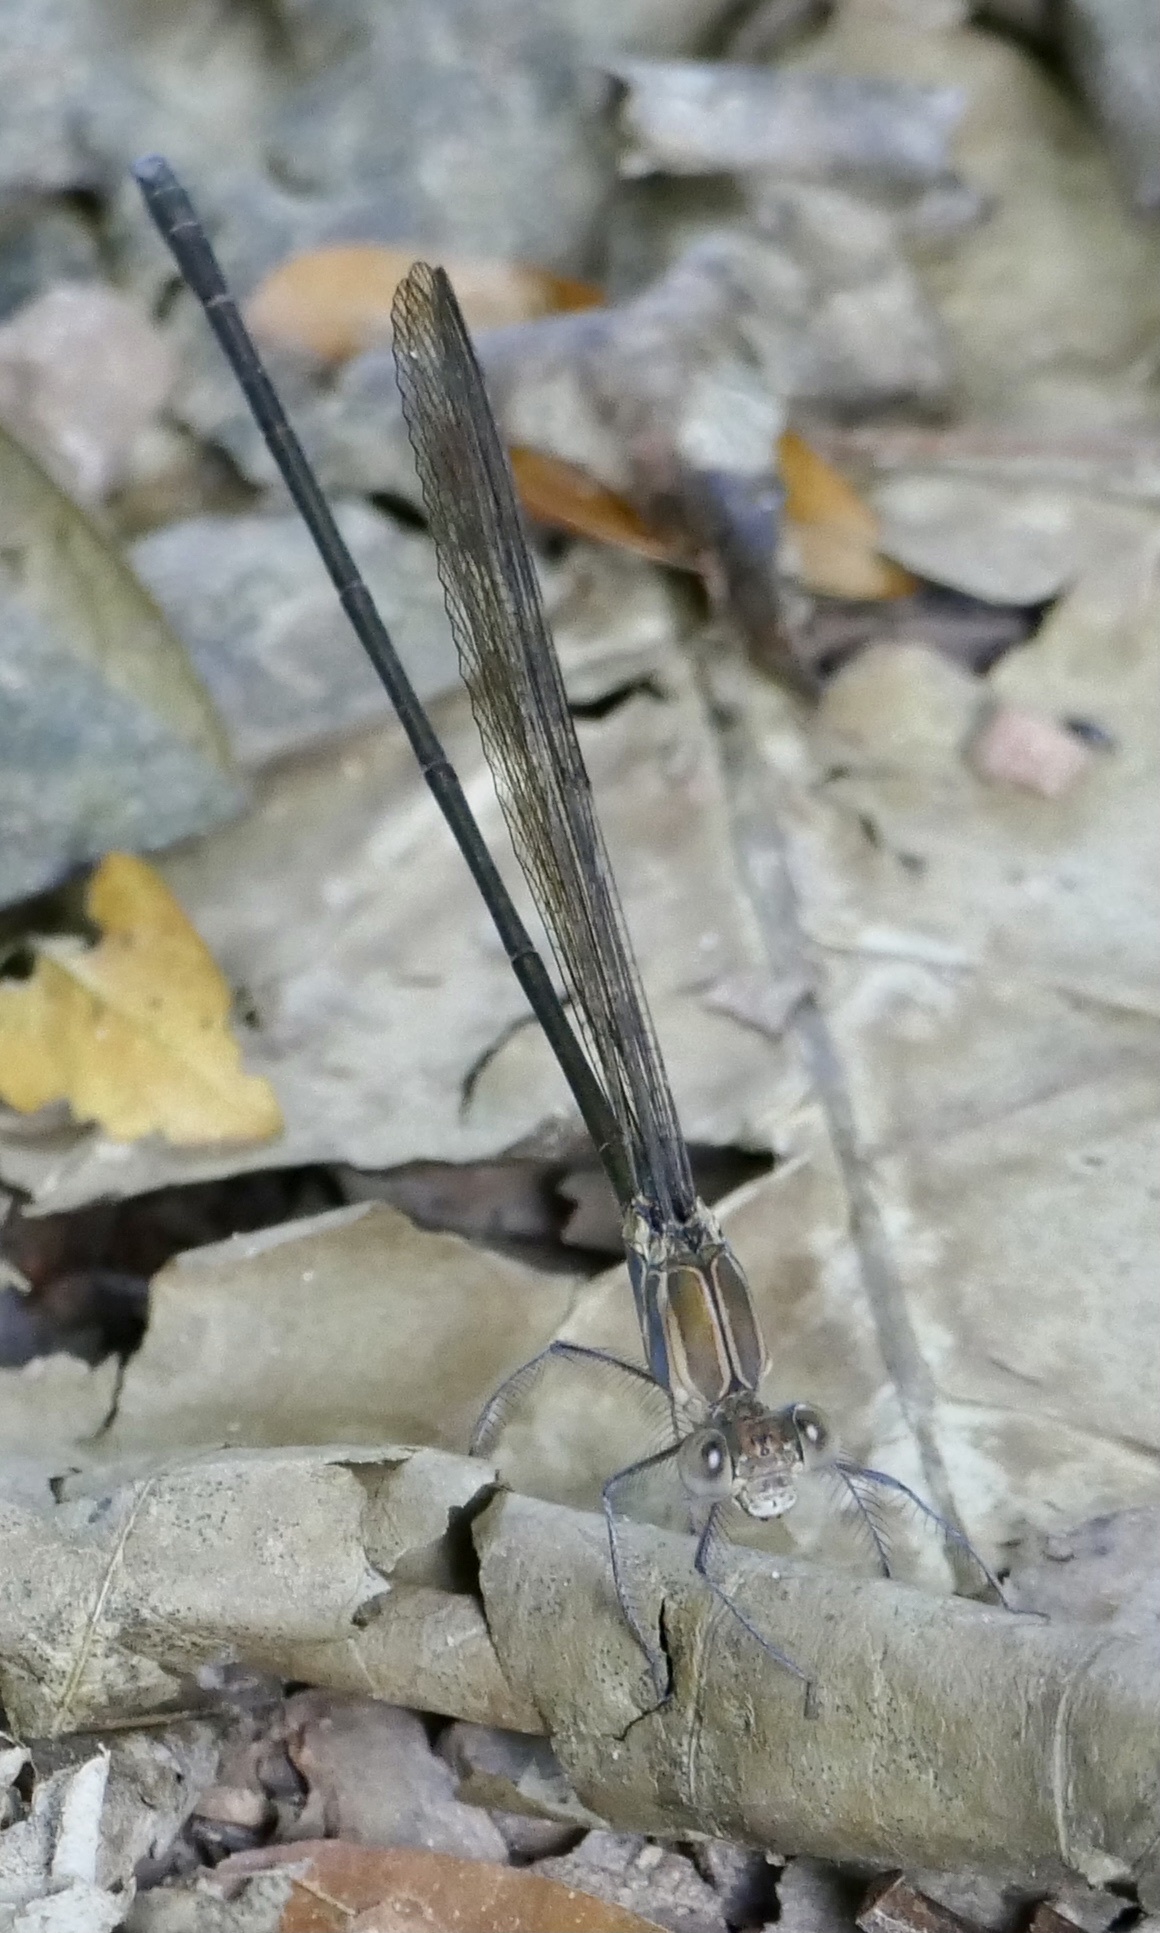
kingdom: Animalia
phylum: Arthropoda
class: Insecta
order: Odonata
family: Calopterygidae
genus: Phaon
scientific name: Phaon iridipennis
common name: Glistening demoiselle
